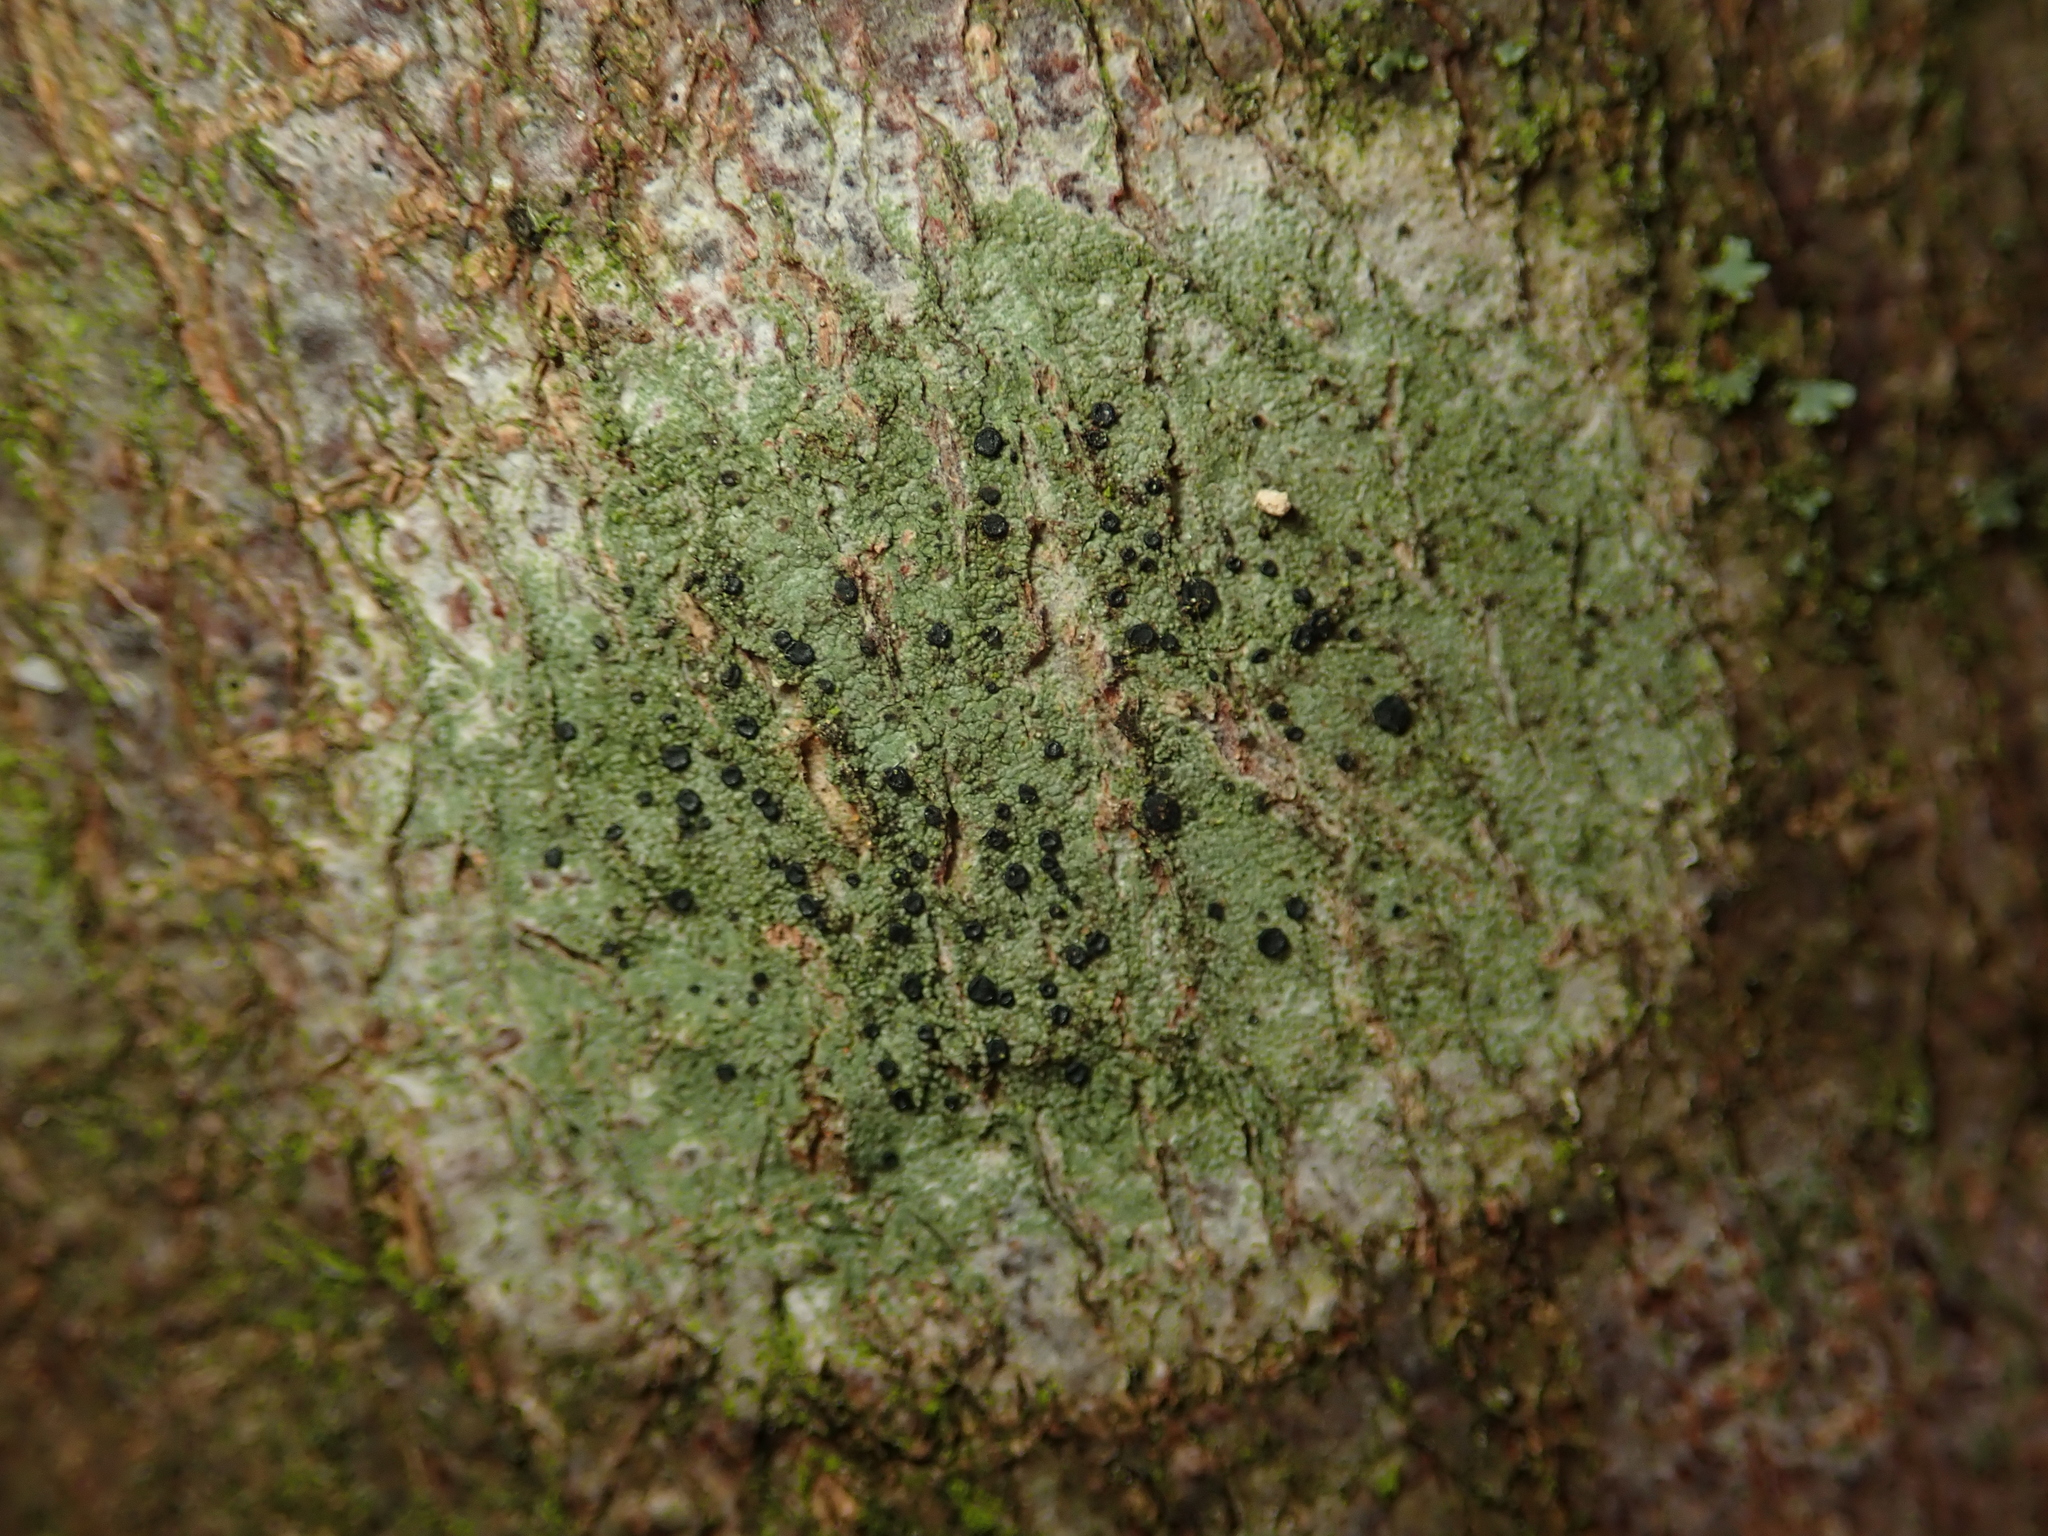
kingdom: Fungi
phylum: Ascomycota
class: Lecanoromycetes
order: Lecanorales
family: Lecanoraceae
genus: Lecidella
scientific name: Lecidella elaeochroma
